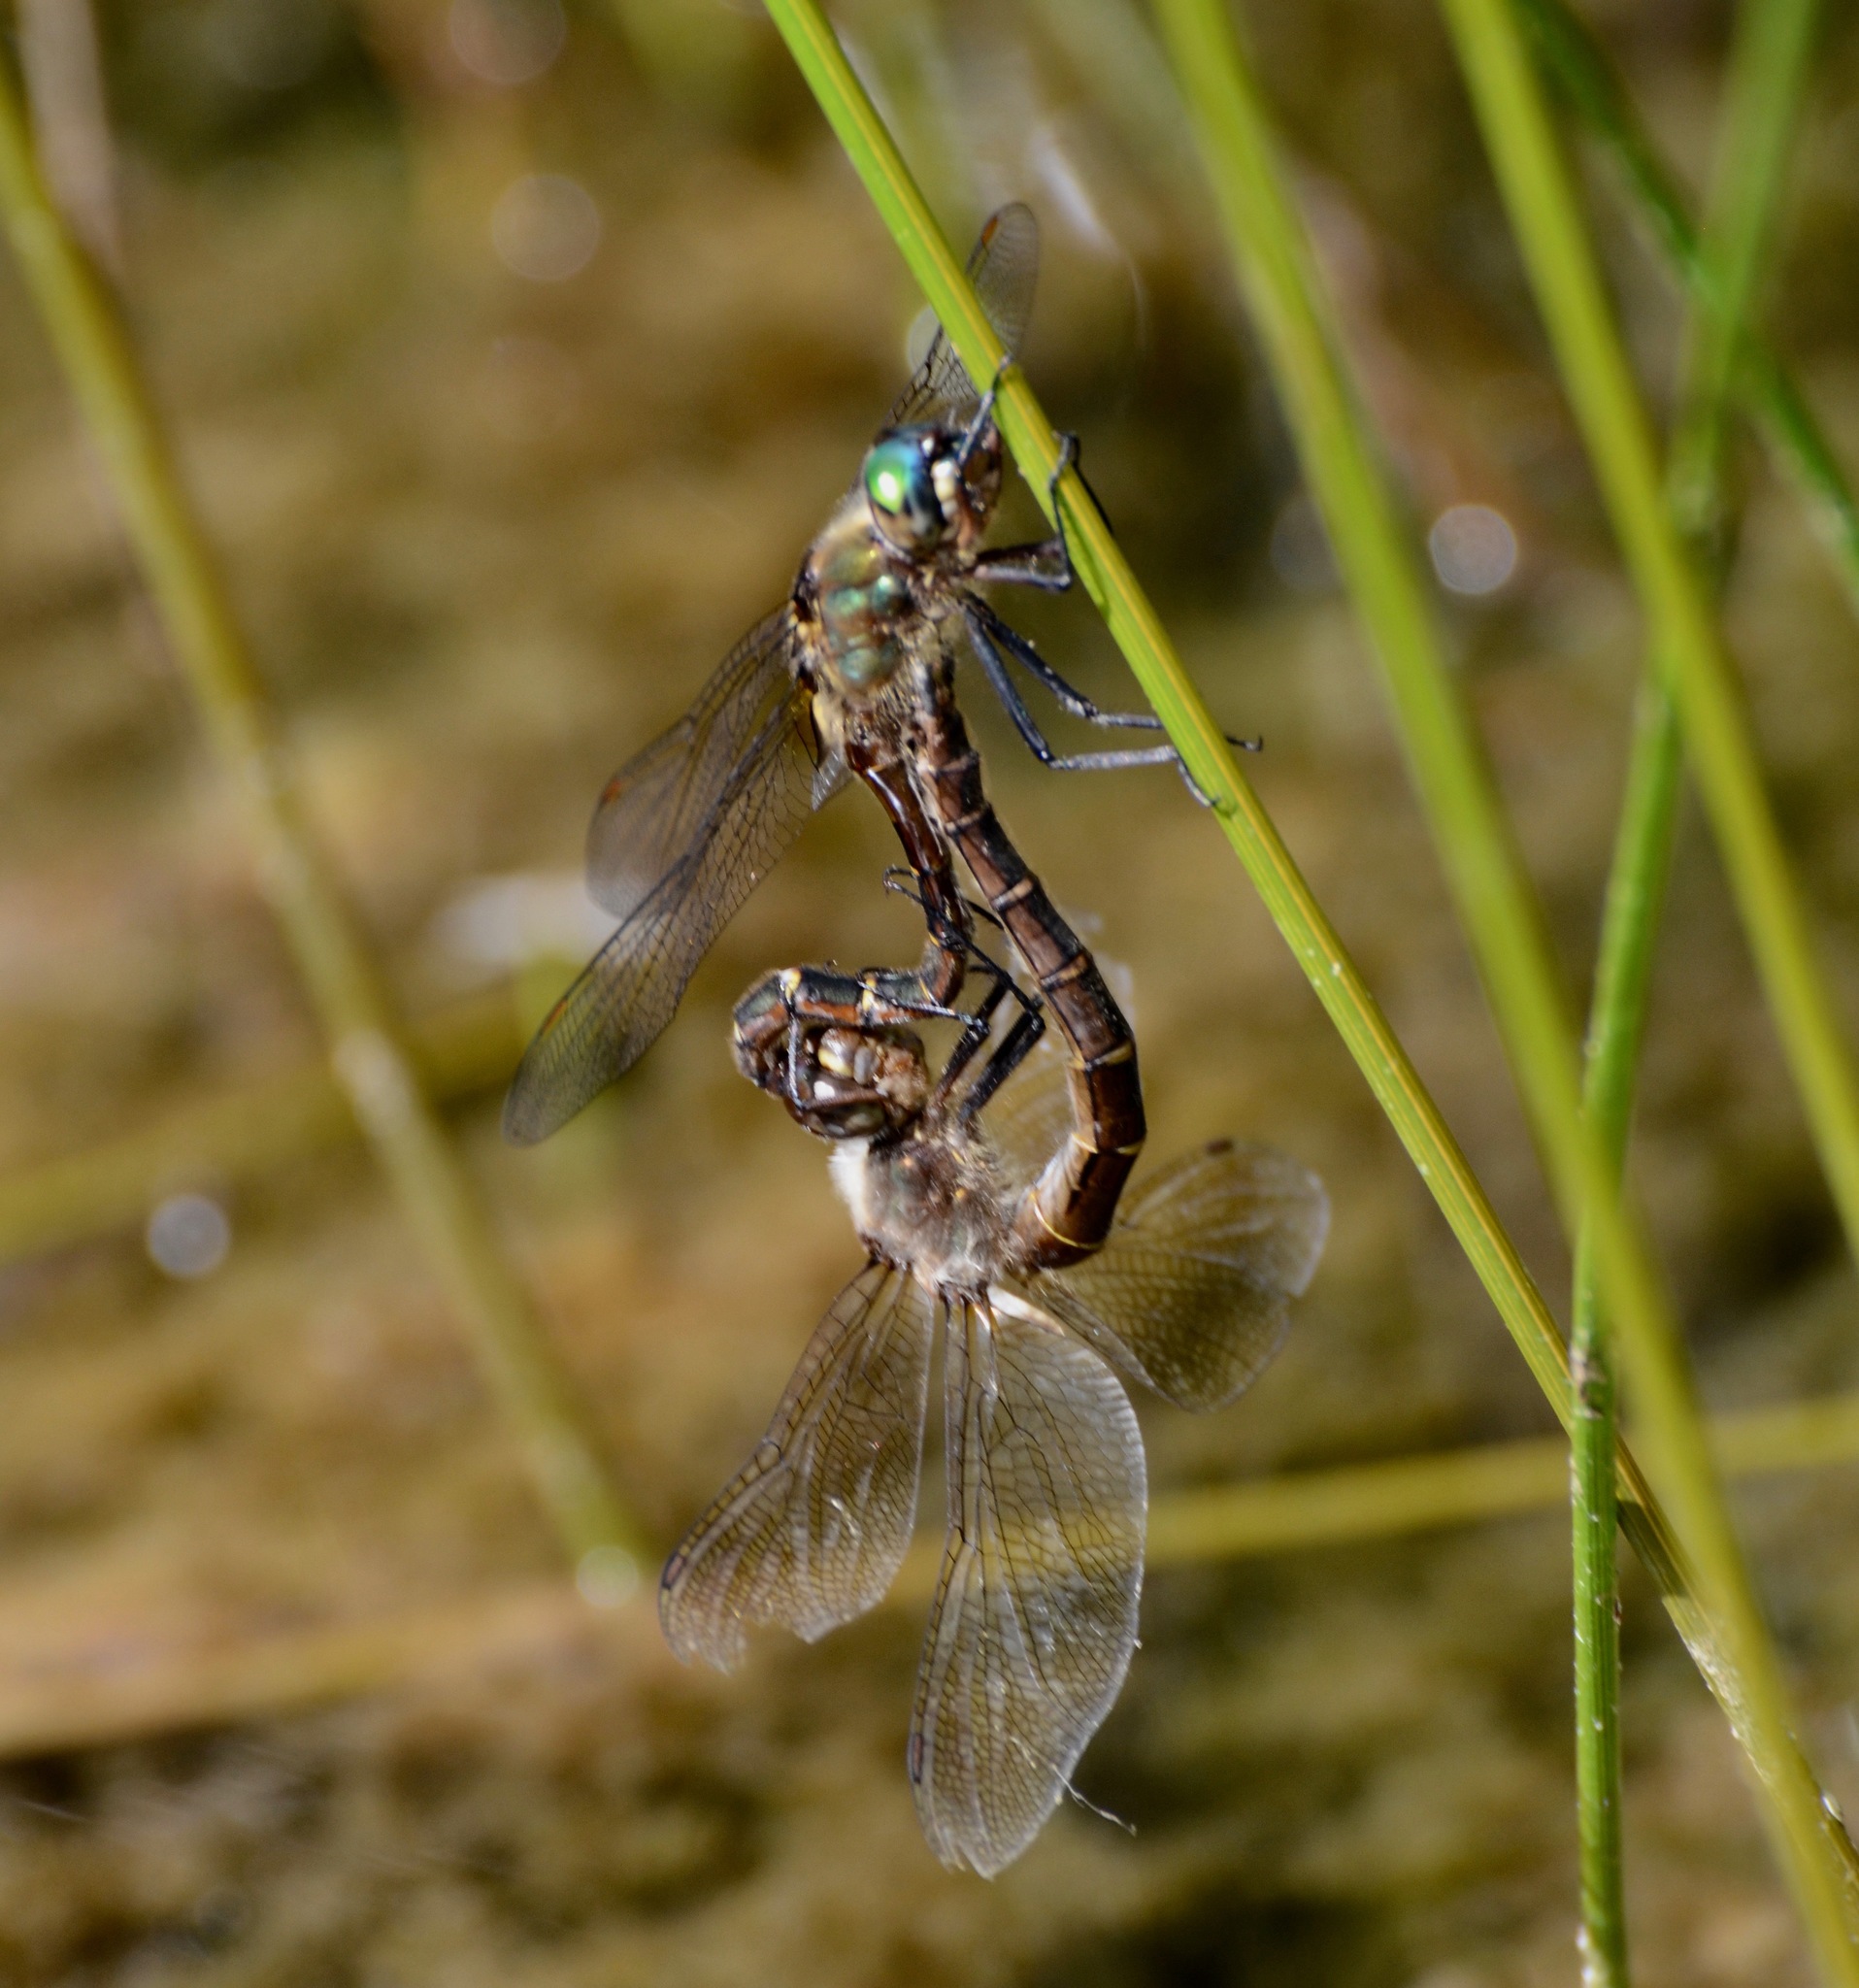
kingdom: Animalia
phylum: Arthropoda
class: Insecta
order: Odonata
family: Corduliidae
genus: Procordulia
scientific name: Procordulia smithii
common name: Ranger dragonfly
